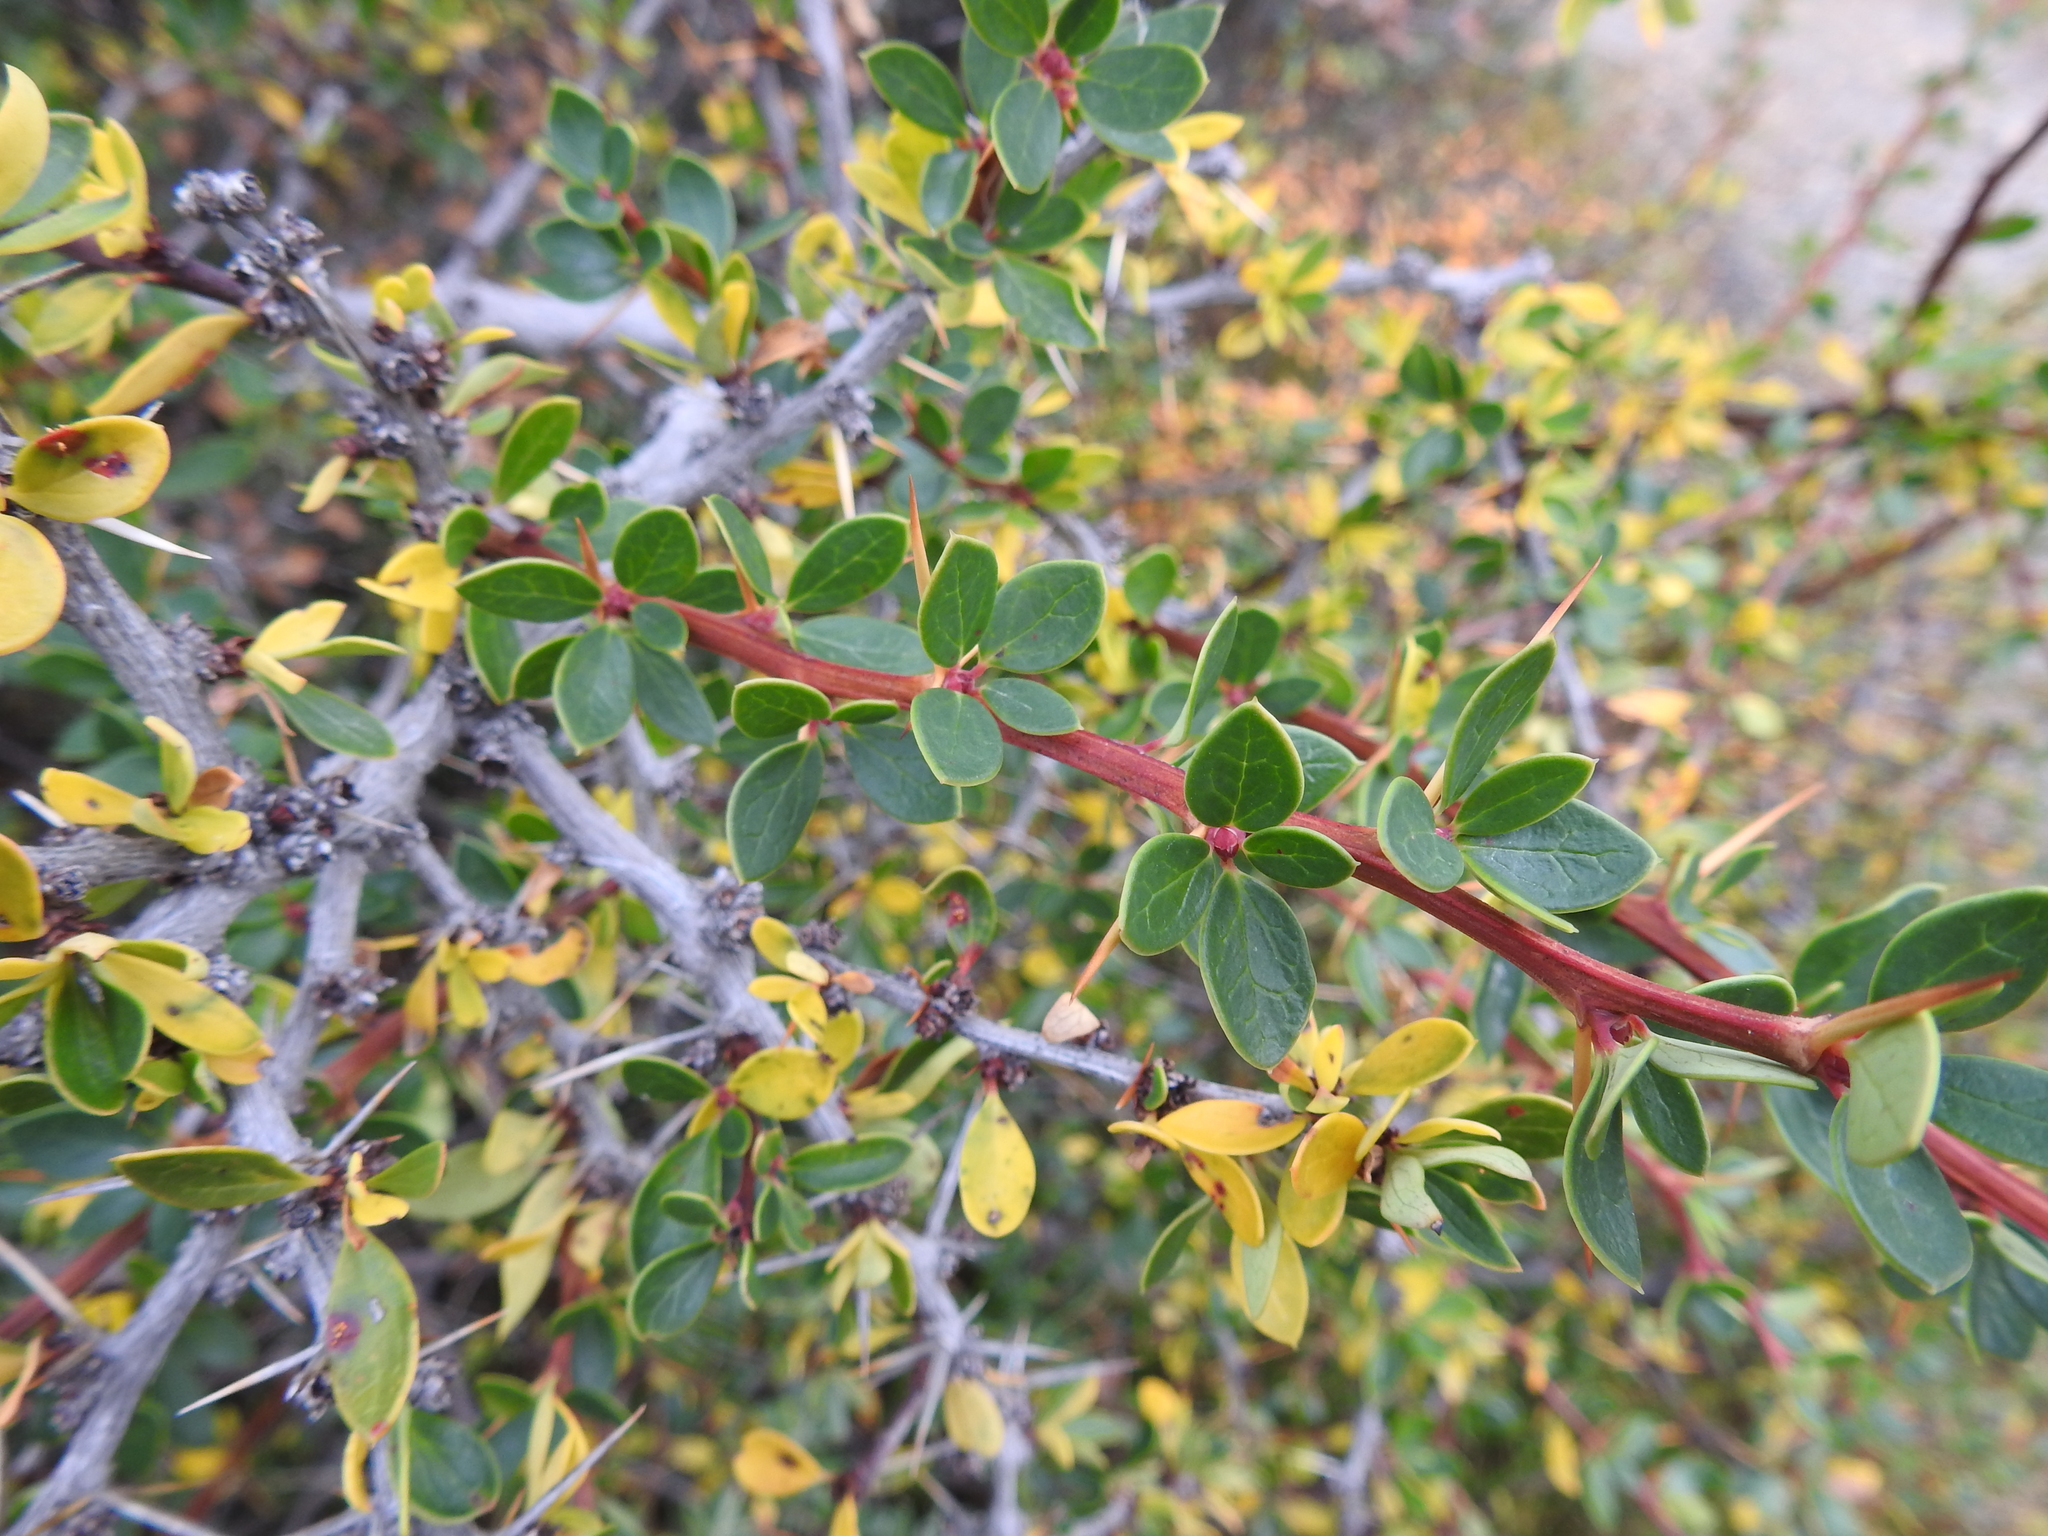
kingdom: Plantae
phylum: Tracheophyta
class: Magnoliopsida
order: Ranunculales
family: Berberidaceae
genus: Berberis
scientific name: Berberis microphylla
